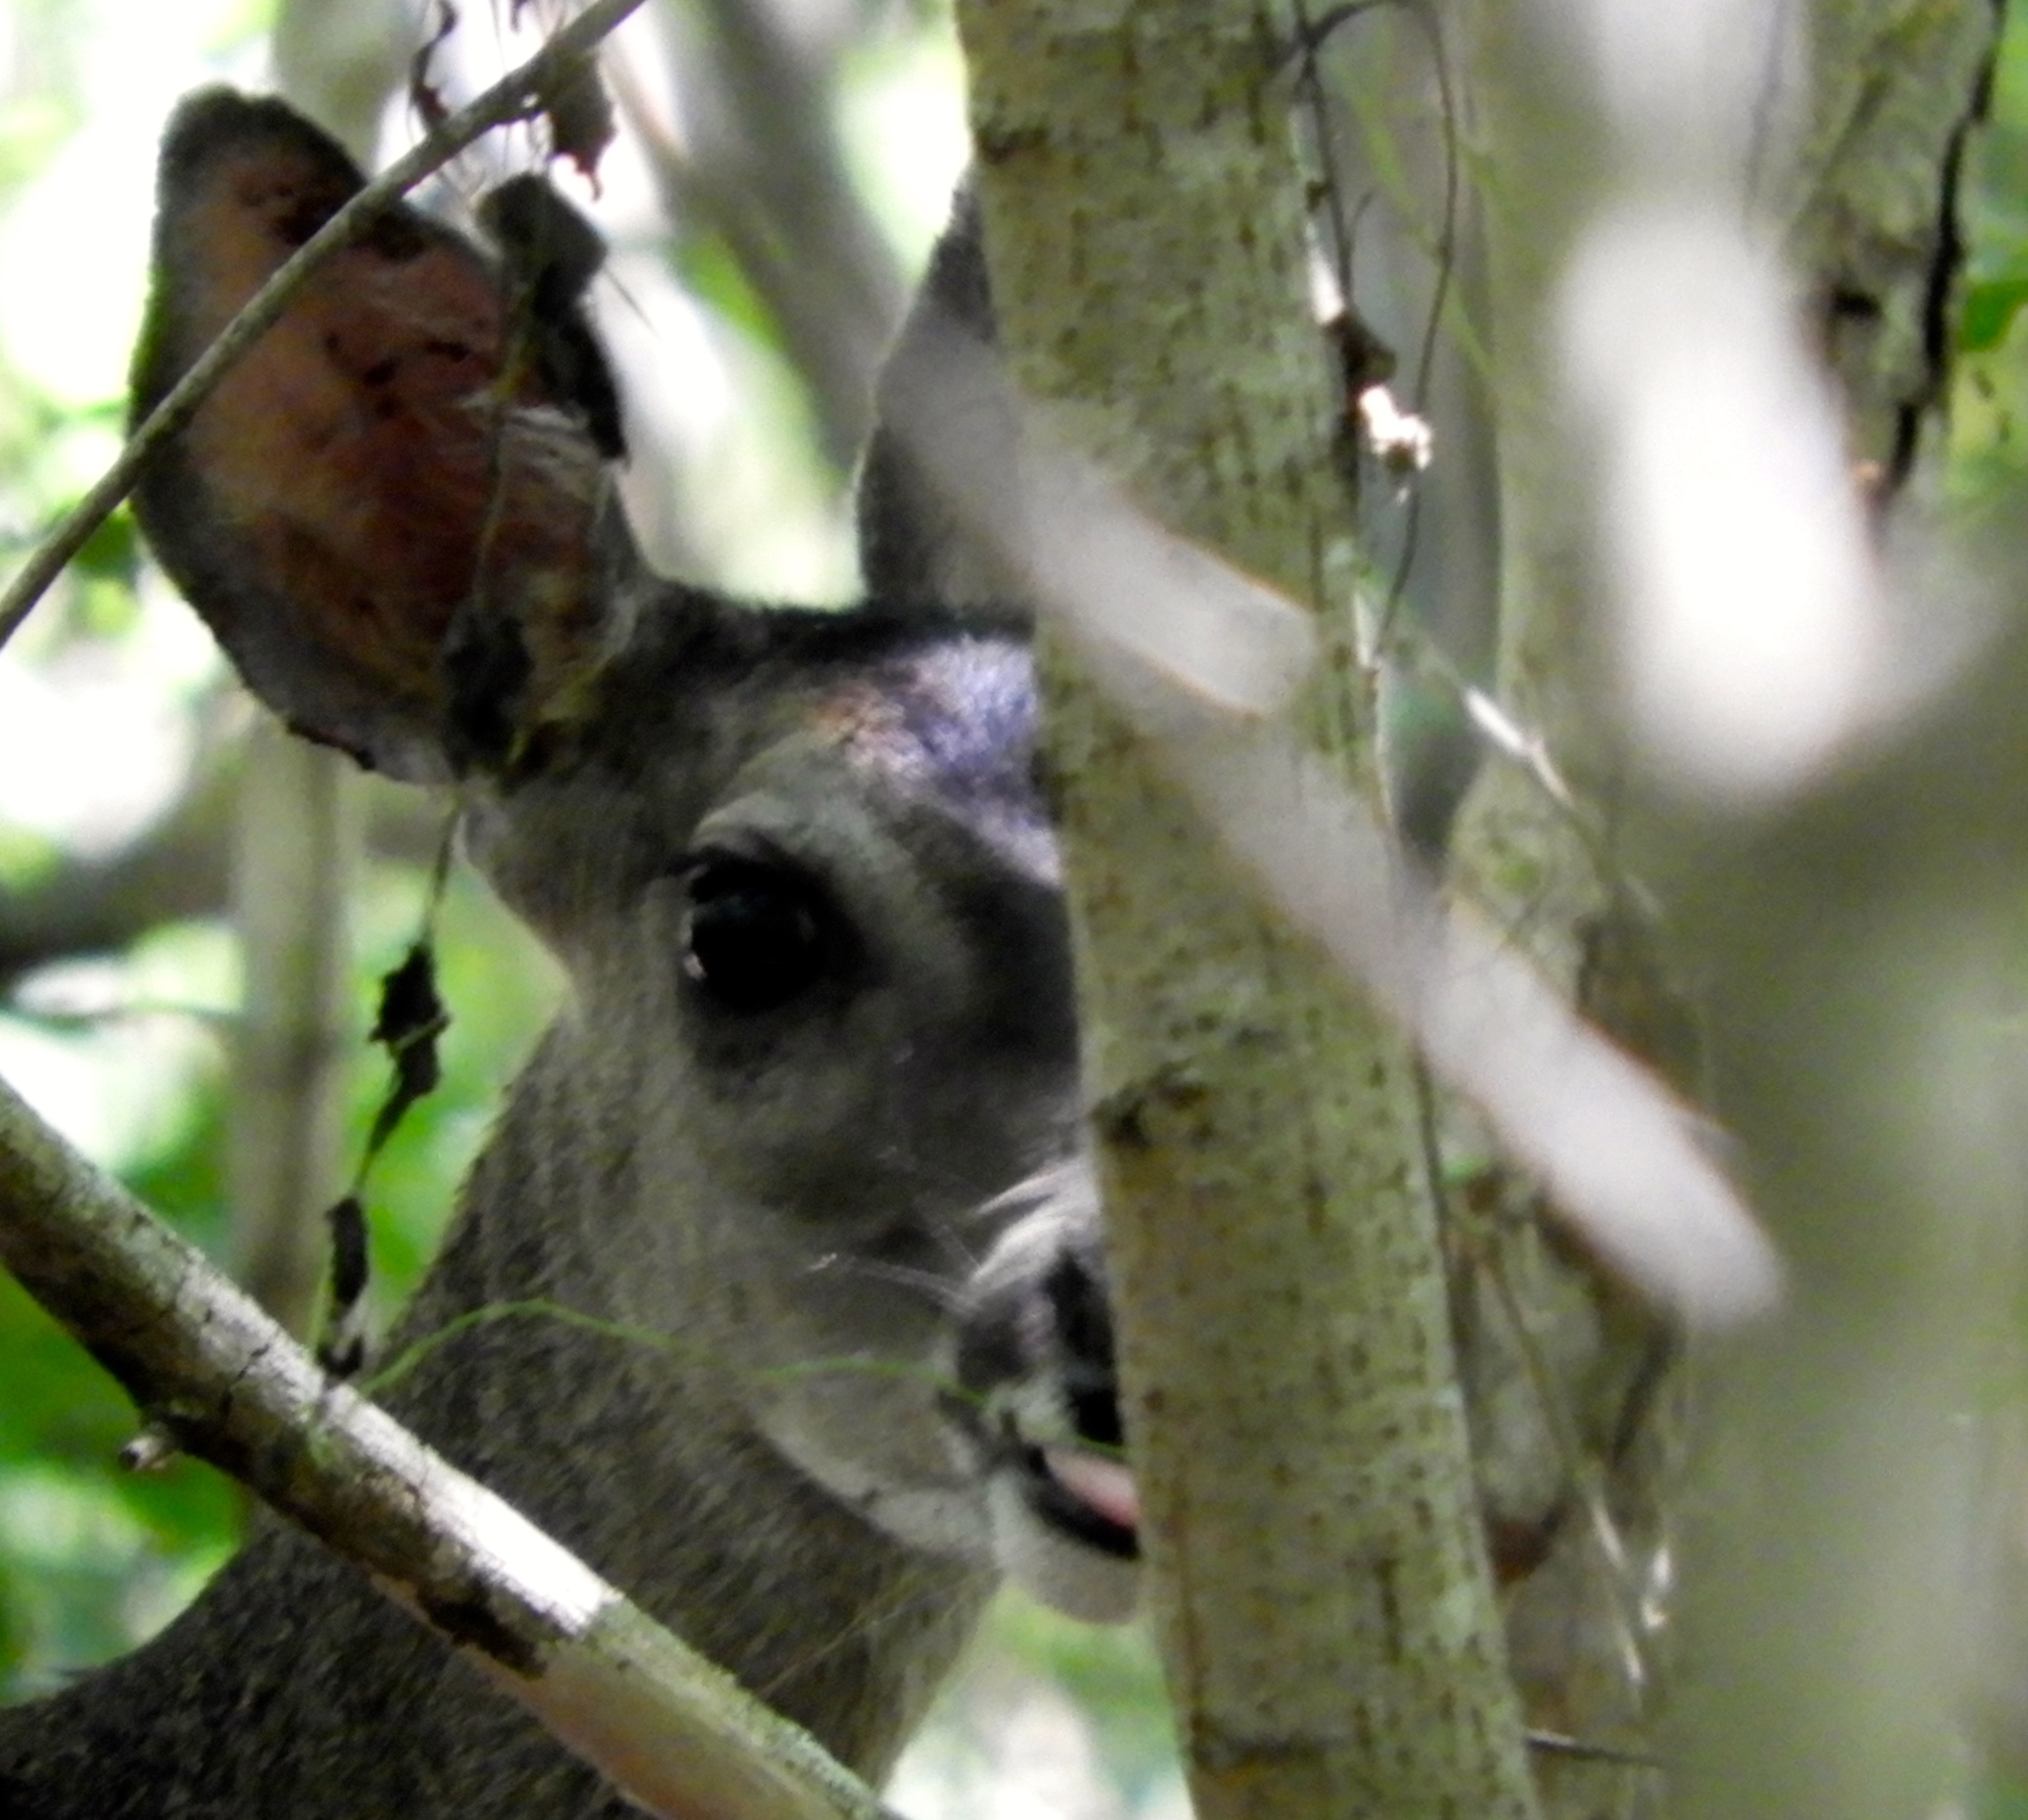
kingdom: Animalia
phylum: Chordata
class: Mammalia
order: Artiodactyla
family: Cervidae
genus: Odocoileus
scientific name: Odocoileus virginianus
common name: White-tailed deer
